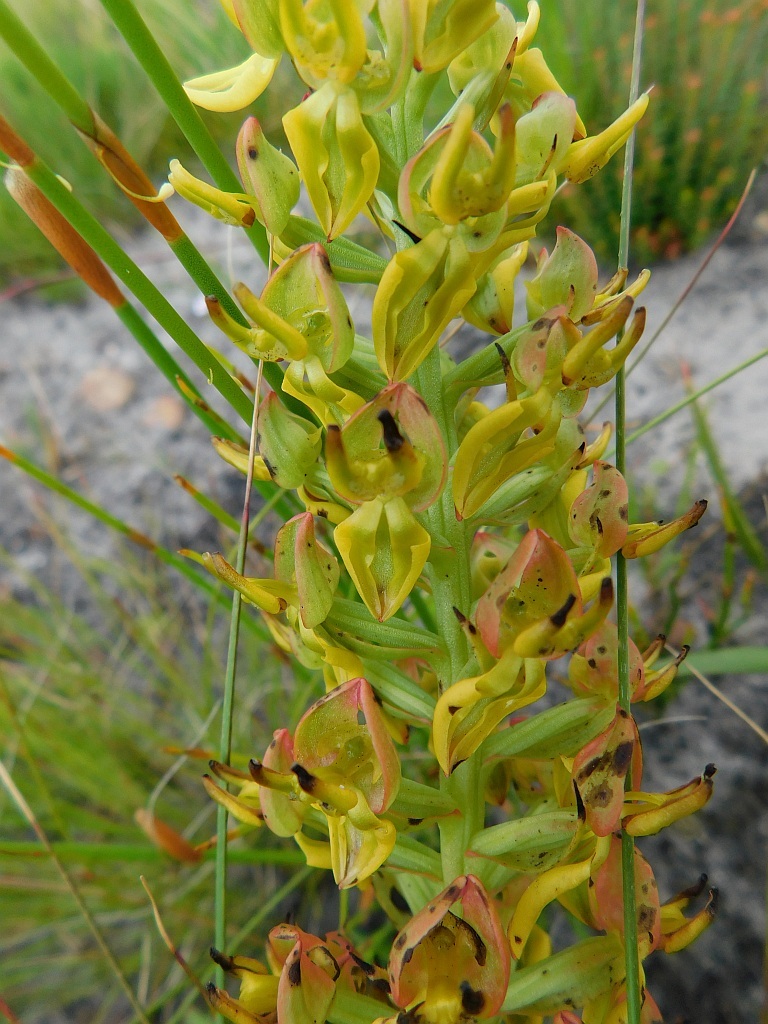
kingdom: Plantae
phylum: Tracheophyta
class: Liliopsida
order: Asparagales
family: Orchidaceae
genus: Ceratandra
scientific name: Ceratandra atrata
